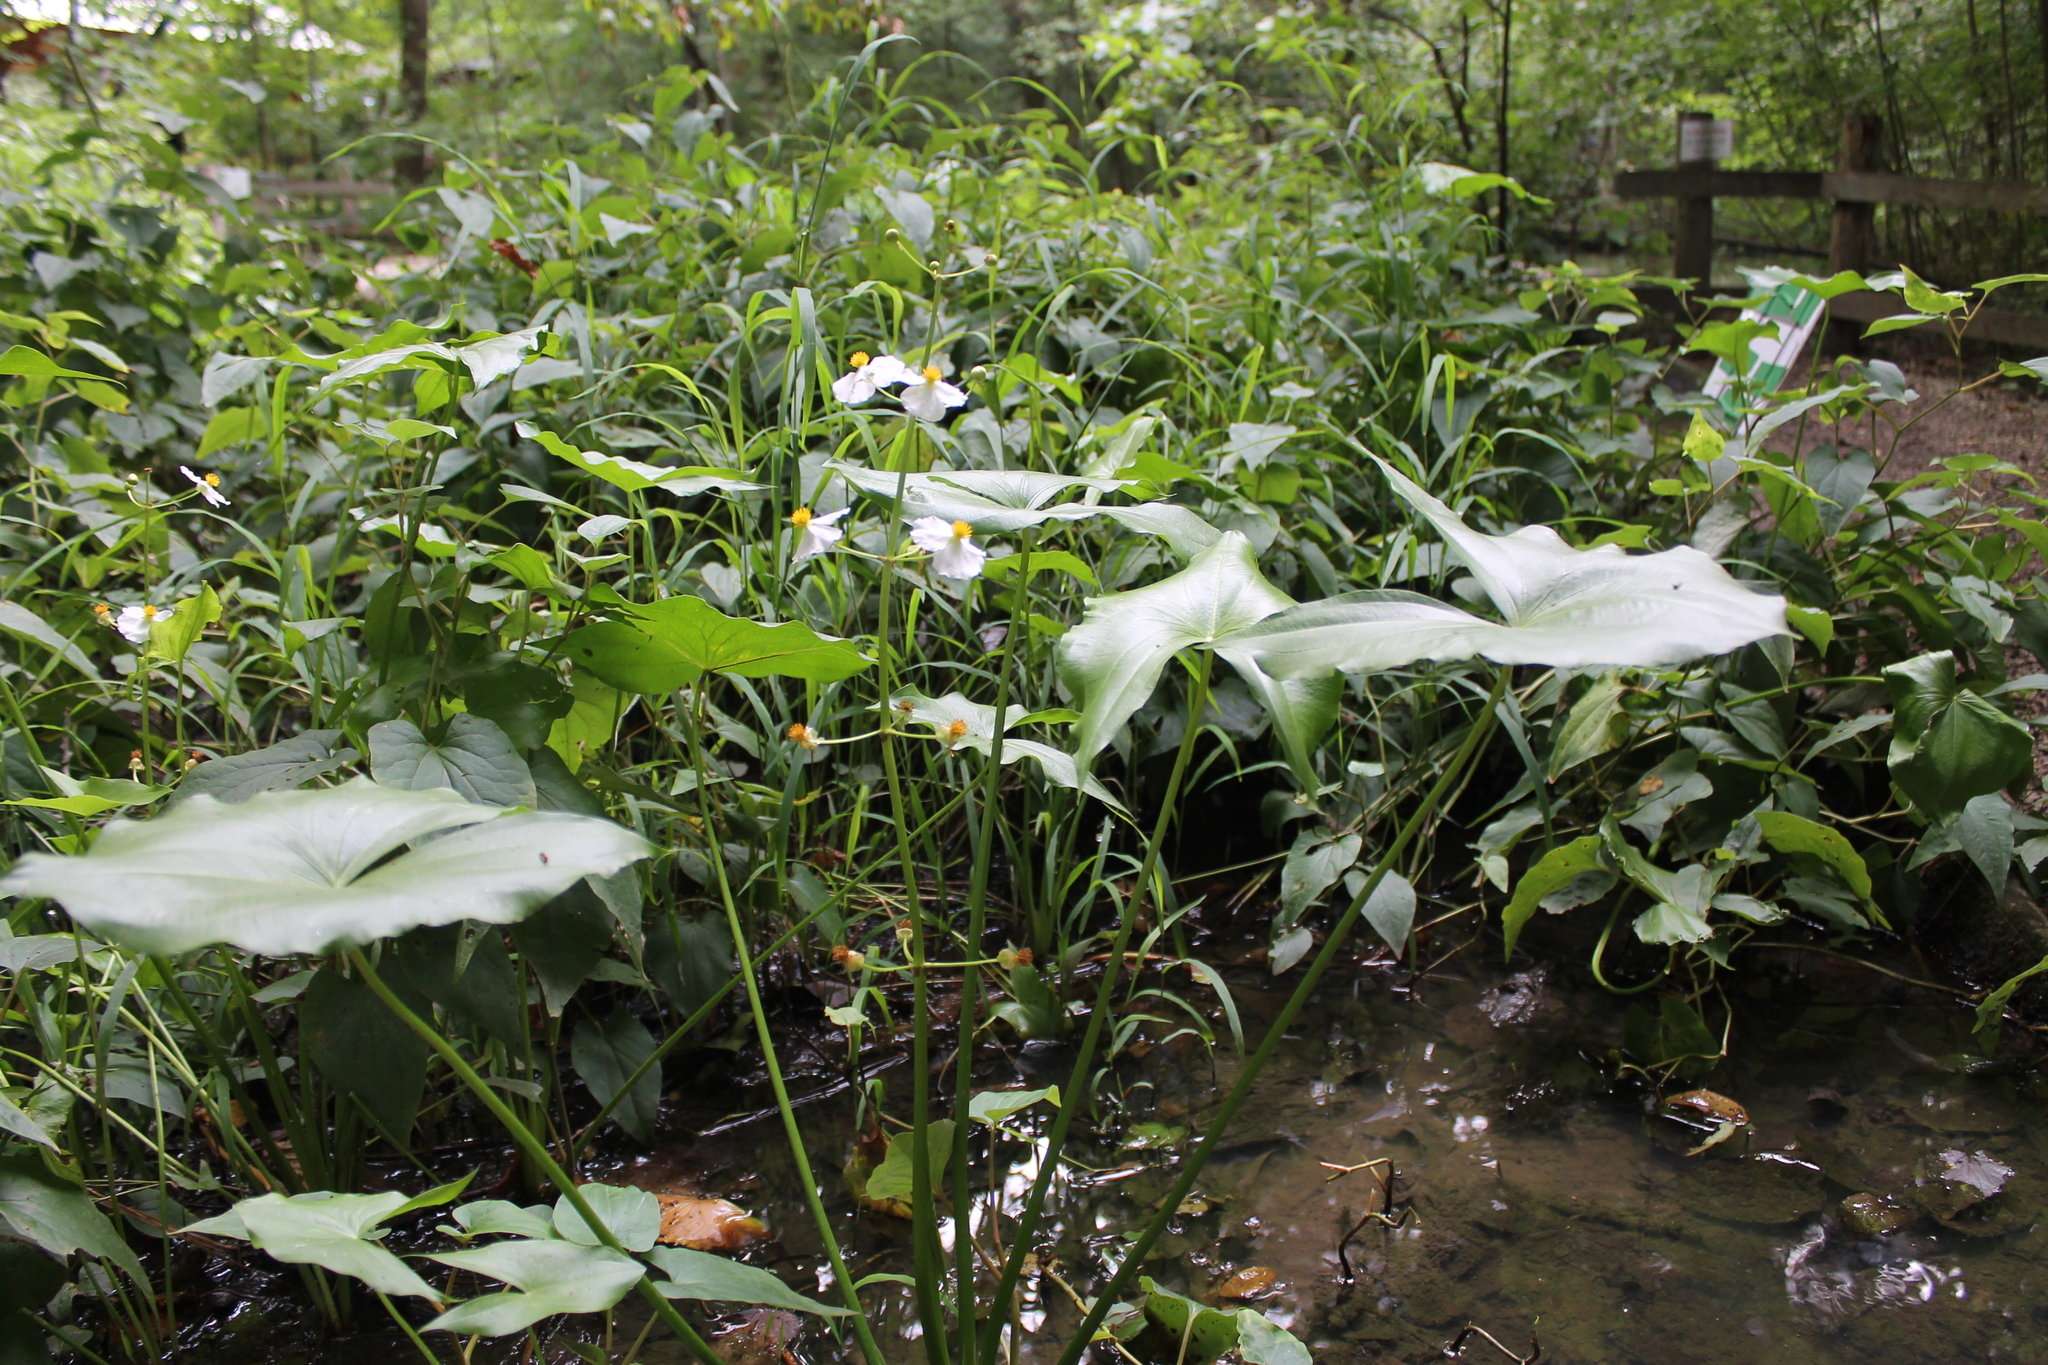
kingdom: Plantae
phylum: Tracheophyta
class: Liliopsida
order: Alismatales
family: Alismataceae
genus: Sagittaria
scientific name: Sagittaria latifolia
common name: Duck-potato
